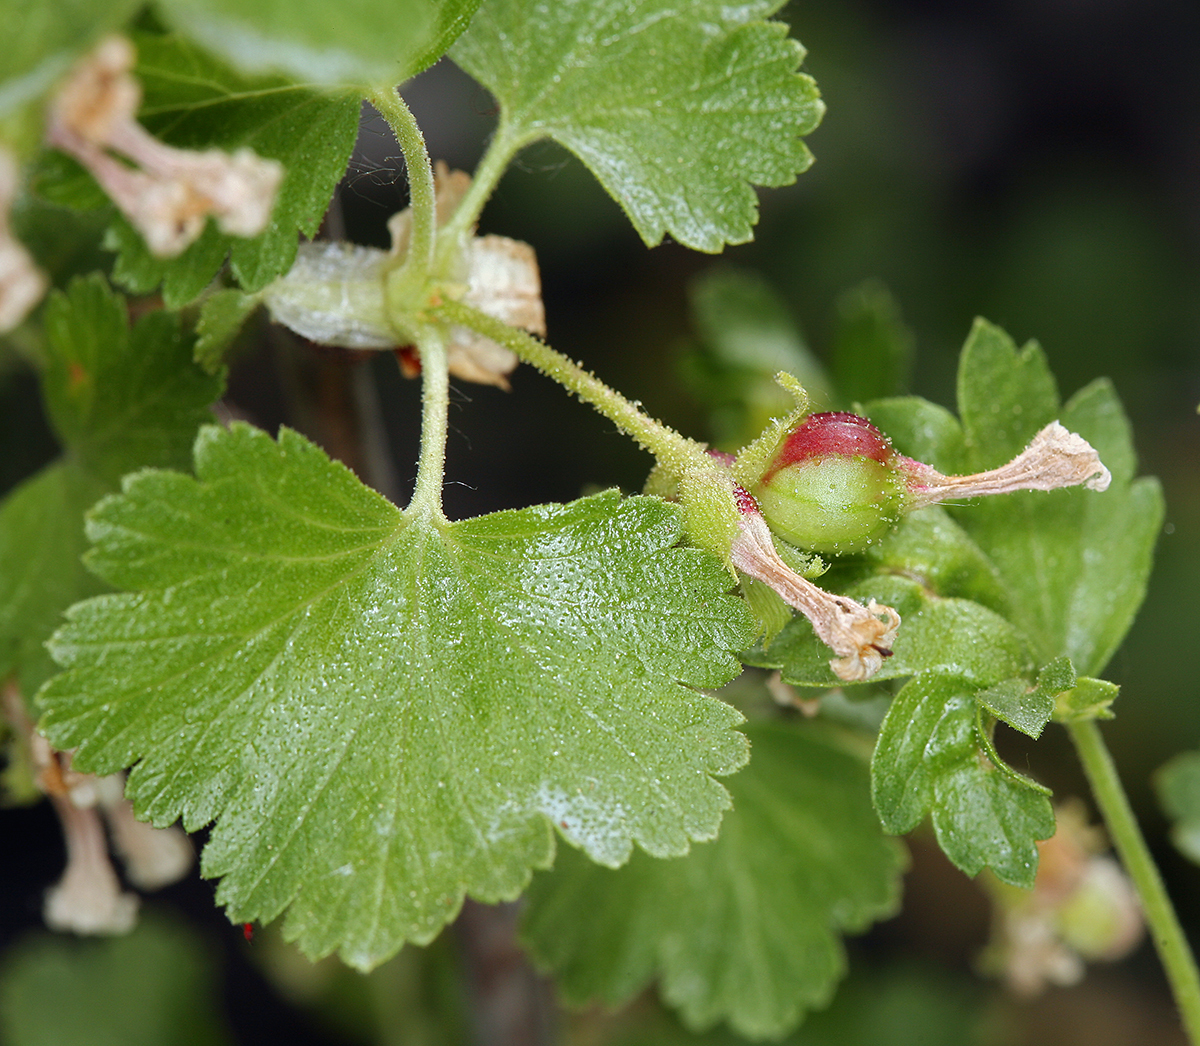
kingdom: Plantae
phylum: Tracheophyta
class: Magnoliopsida
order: Saxifragales
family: Grossulariaceae
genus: Ribes
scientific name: Ribes cereum
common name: Wax currant
